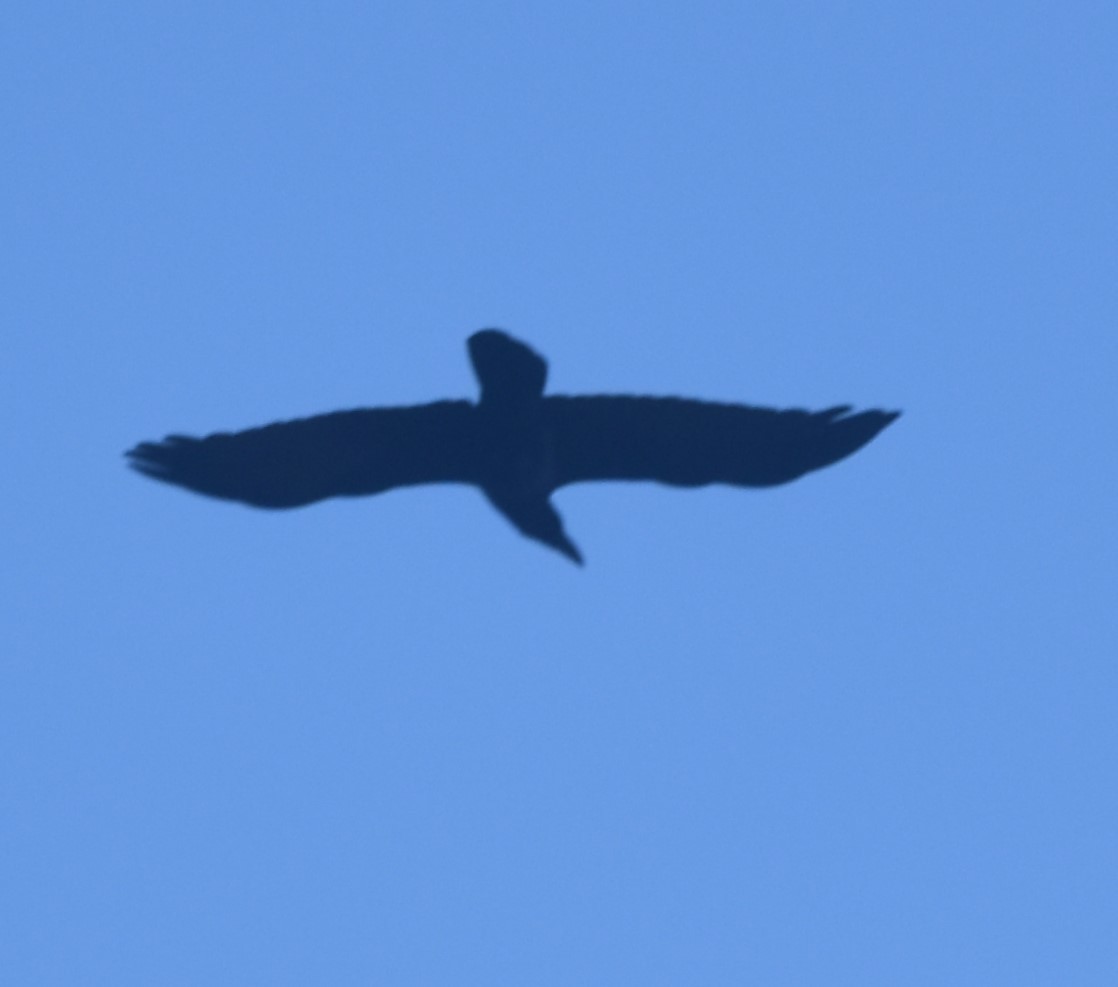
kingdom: Animalia
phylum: Chordata
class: Aves
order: Passeriformes
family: Corvidae
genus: Corvus
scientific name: Corvus macrorhynchos
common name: Large-billed crow
